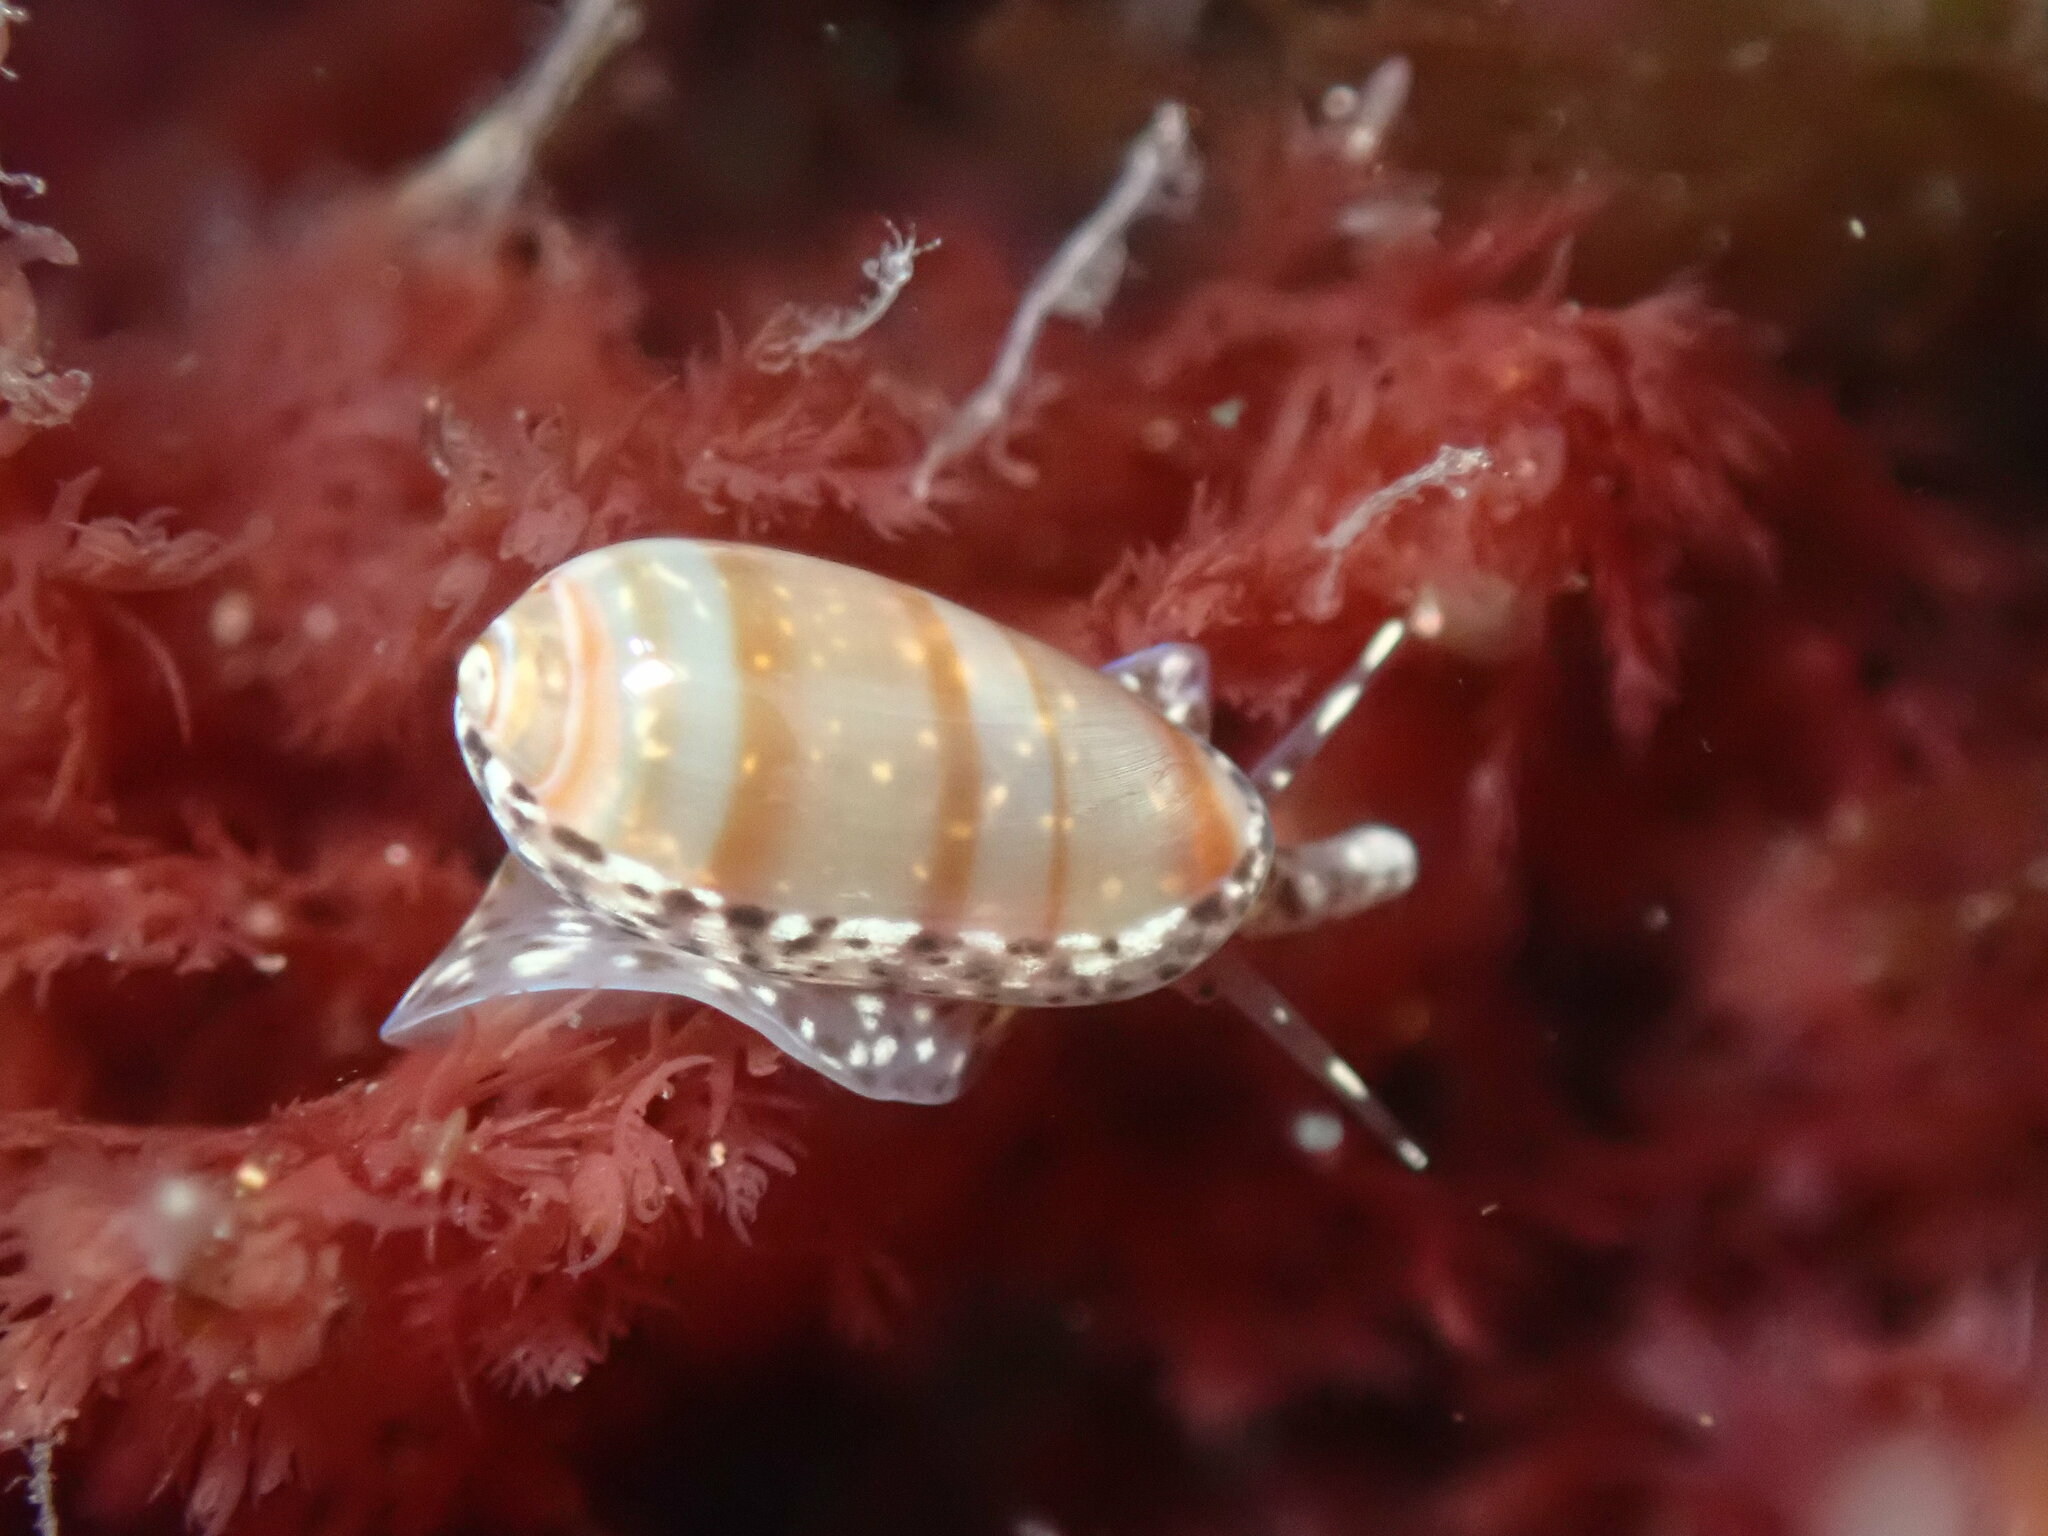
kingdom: Animalia
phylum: Mollusca
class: Gastropoda
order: Neogastropoda
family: Marginellidae
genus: Volvarina
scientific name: Volvarina taeniolata
